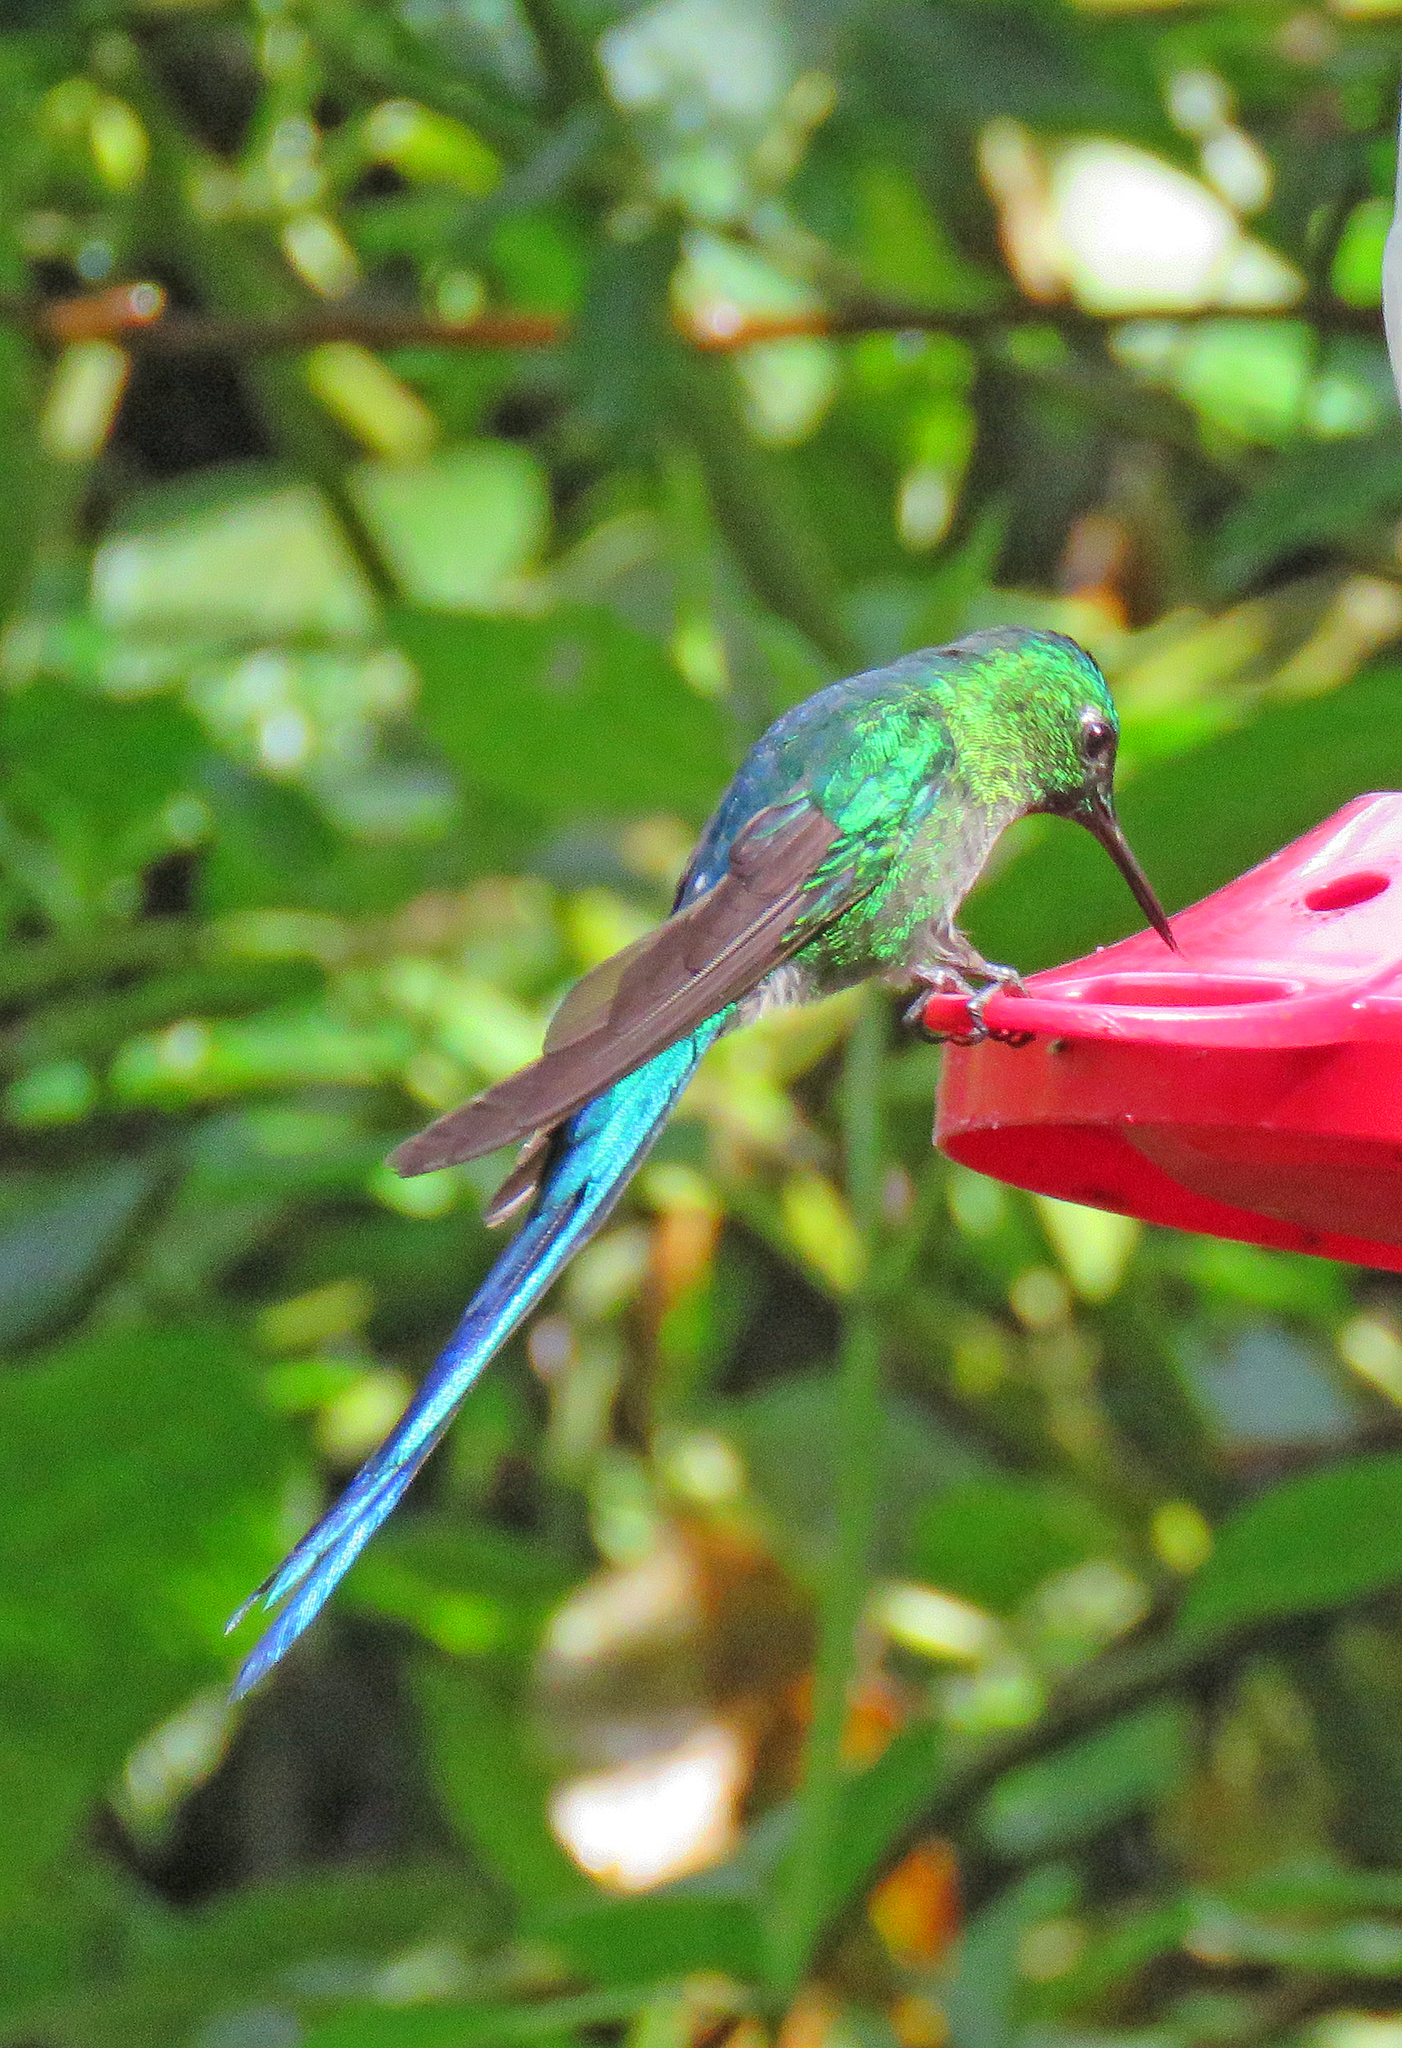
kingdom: Animalia
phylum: Chordata
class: Aves
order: Apodiformes
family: Trochilidae
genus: Aglaiocercus
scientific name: Aglaiocercus kingii
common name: Long-tailed sylph
